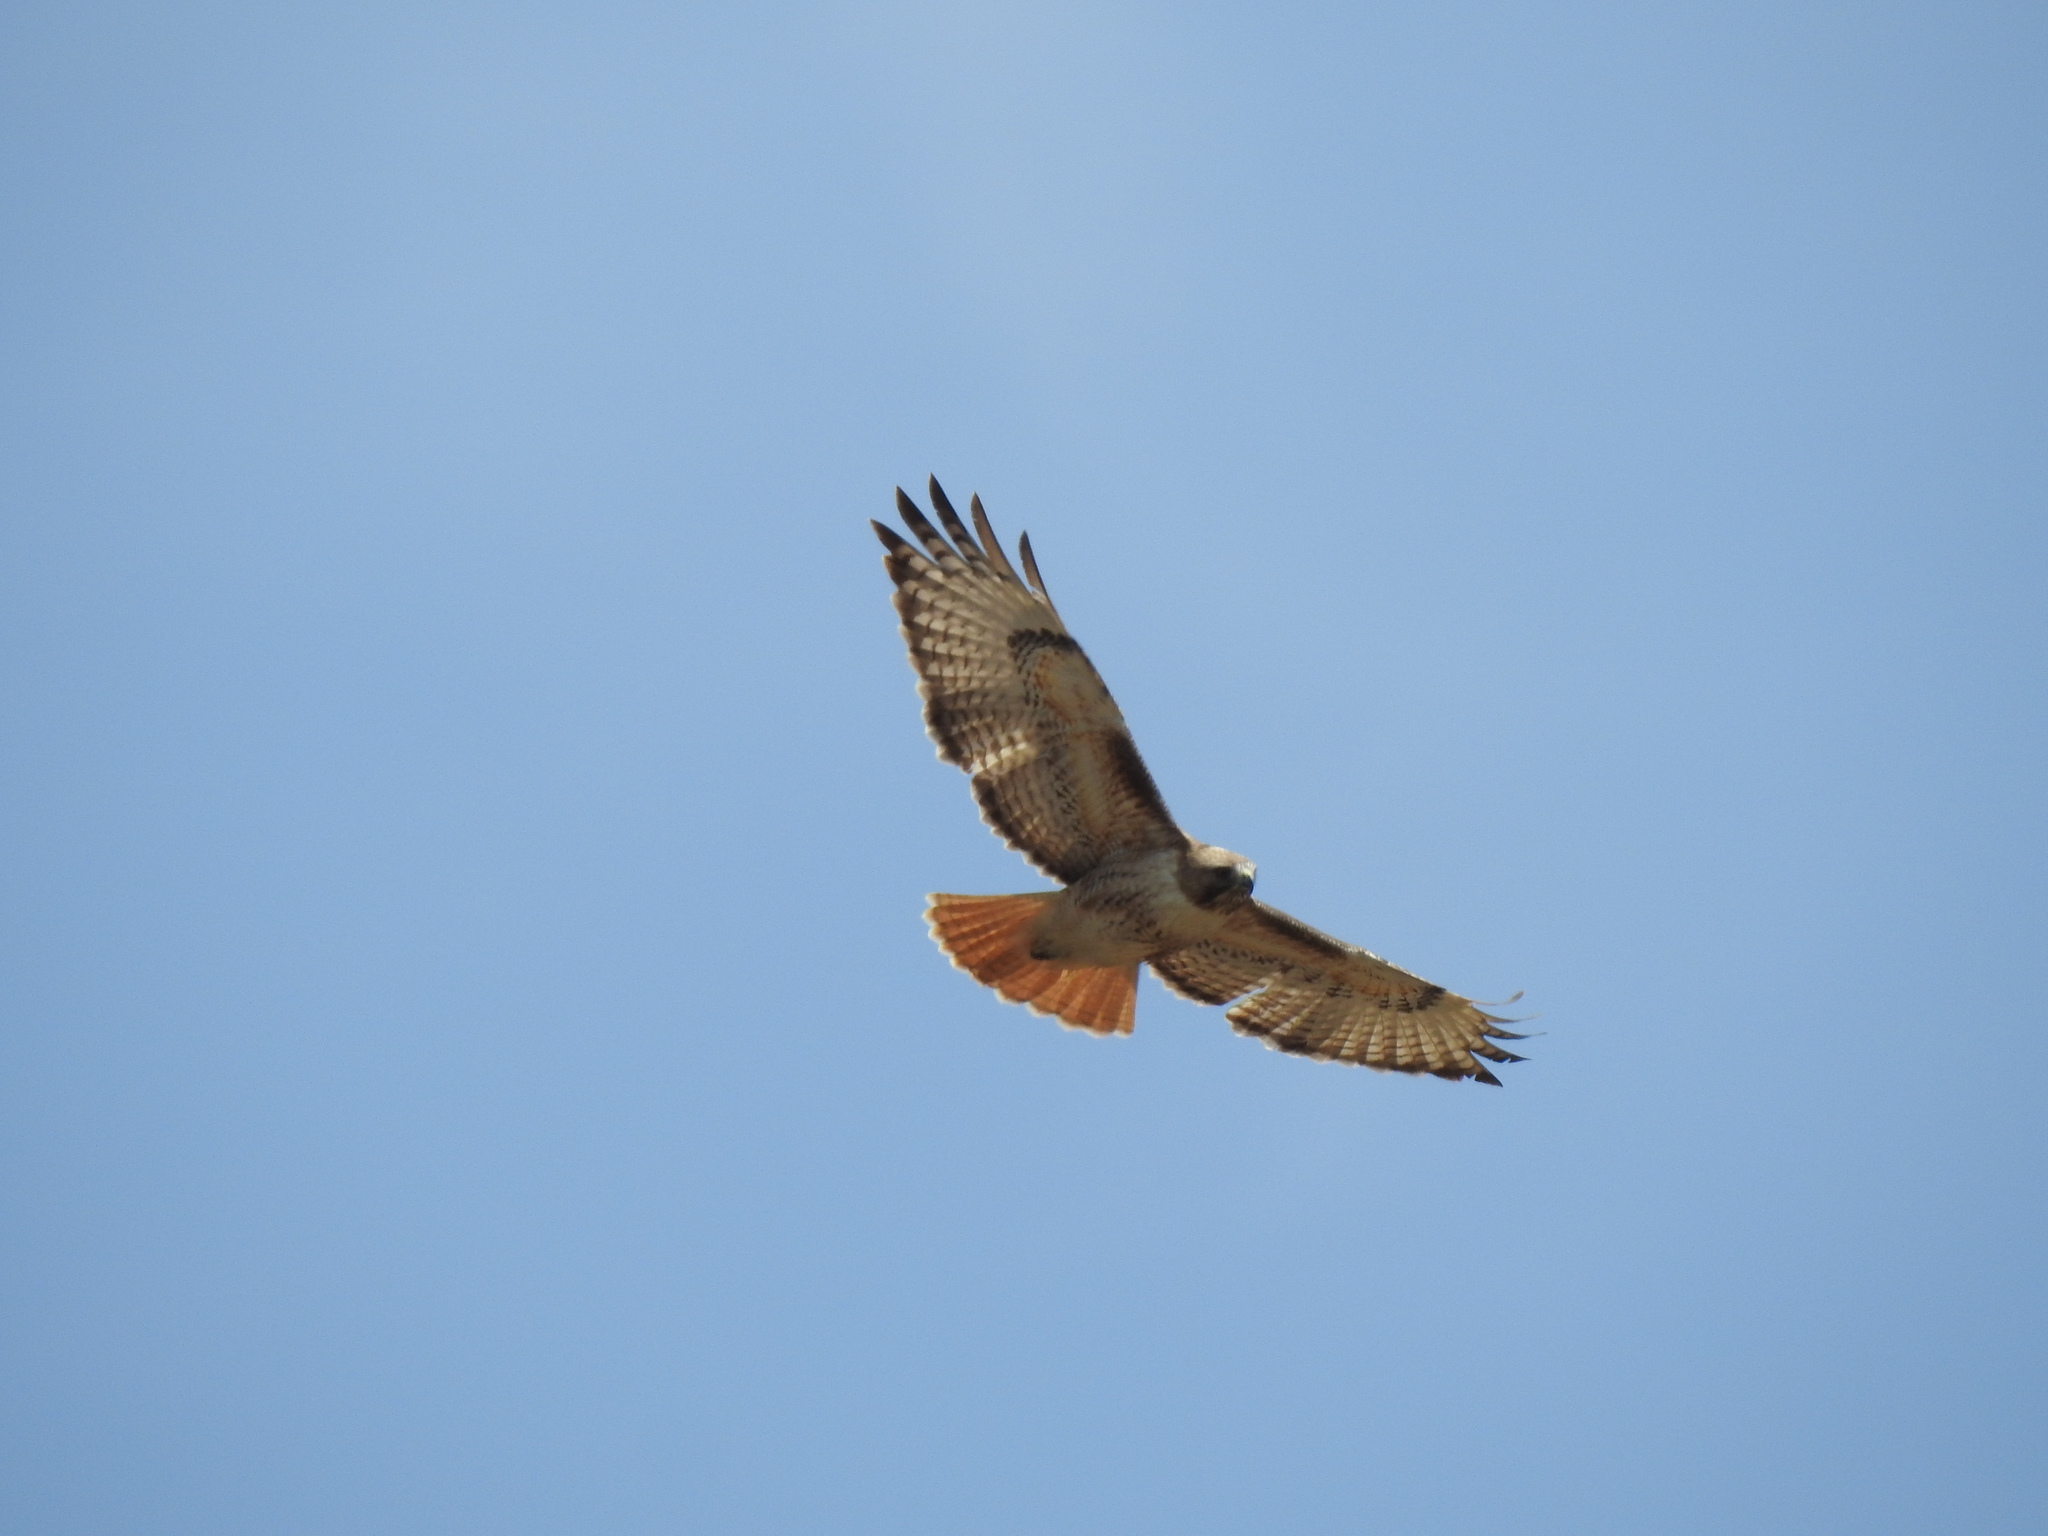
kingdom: Animalia
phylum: Chordata
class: Aves
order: Accipitriformes
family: Accipitridae
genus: Buteo
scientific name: Buteo jamaicensis
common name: Red-tailed hawk
